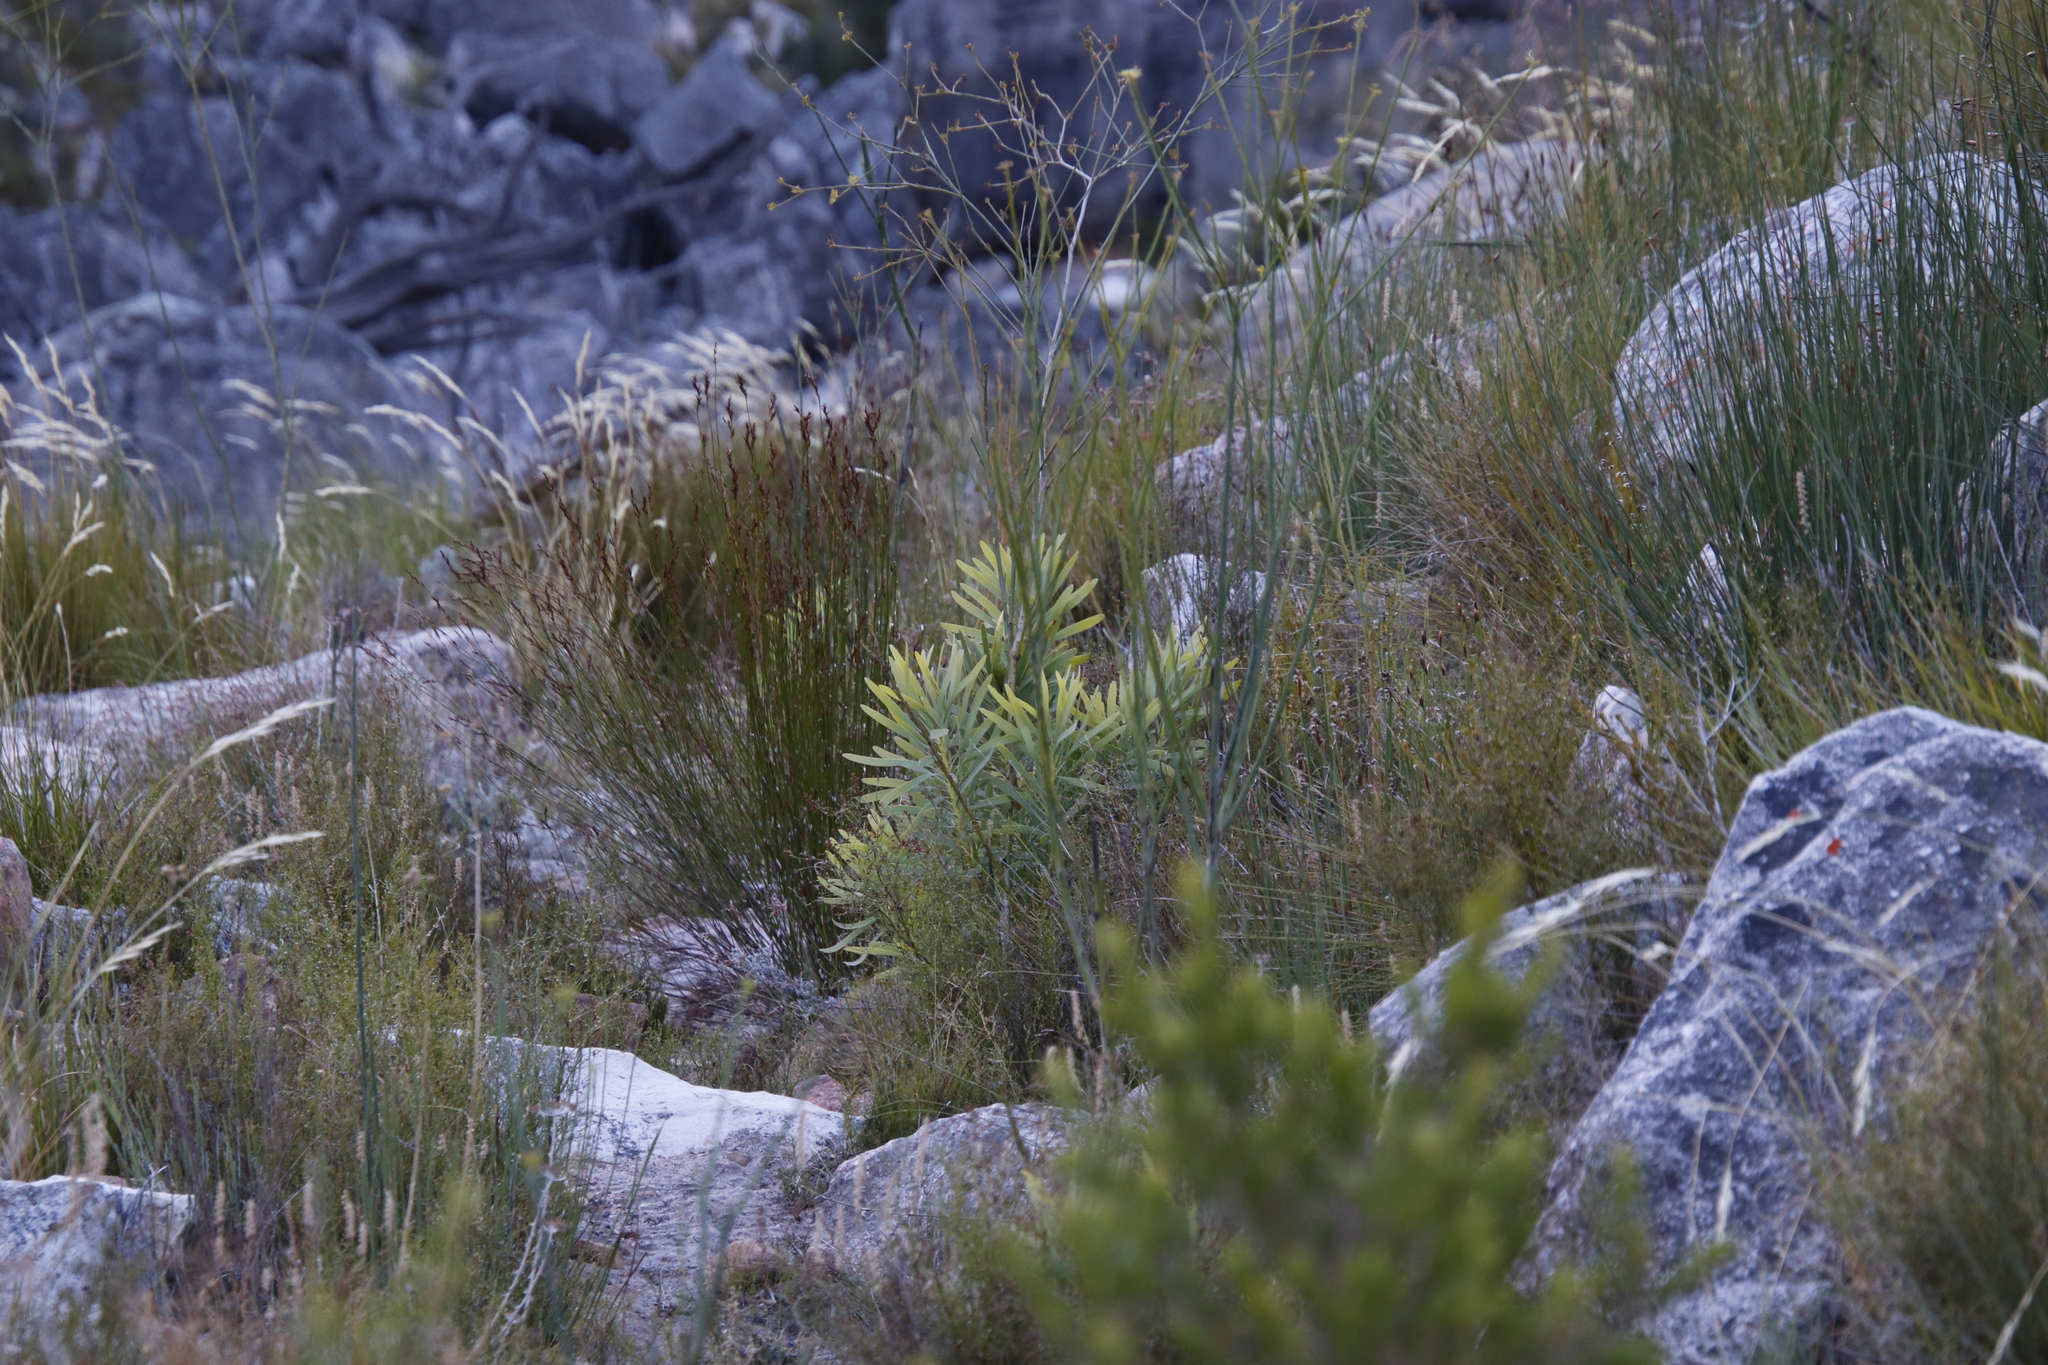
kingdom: Plantae
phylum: Tracheophyta
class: Magnoliopsida
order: Proteales
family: Proteaceae
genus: Protea
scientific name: Protea repens
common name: Sugarbush
